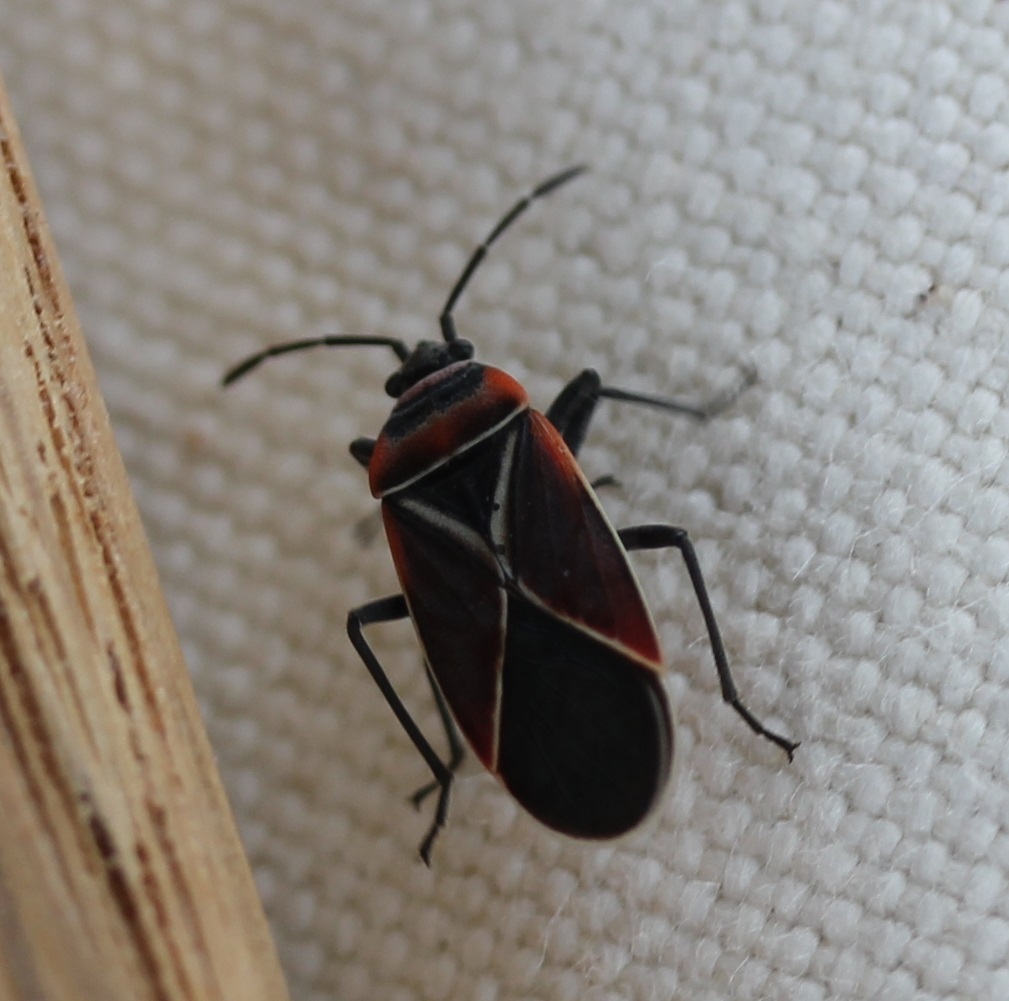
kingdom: Animalia
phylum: Arthropoda
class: Insecta
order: Hemiptera
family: Lygaeidae
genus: Neacoryphus
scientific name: Neacoryphus bicrucis
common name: Lygaeid bug
